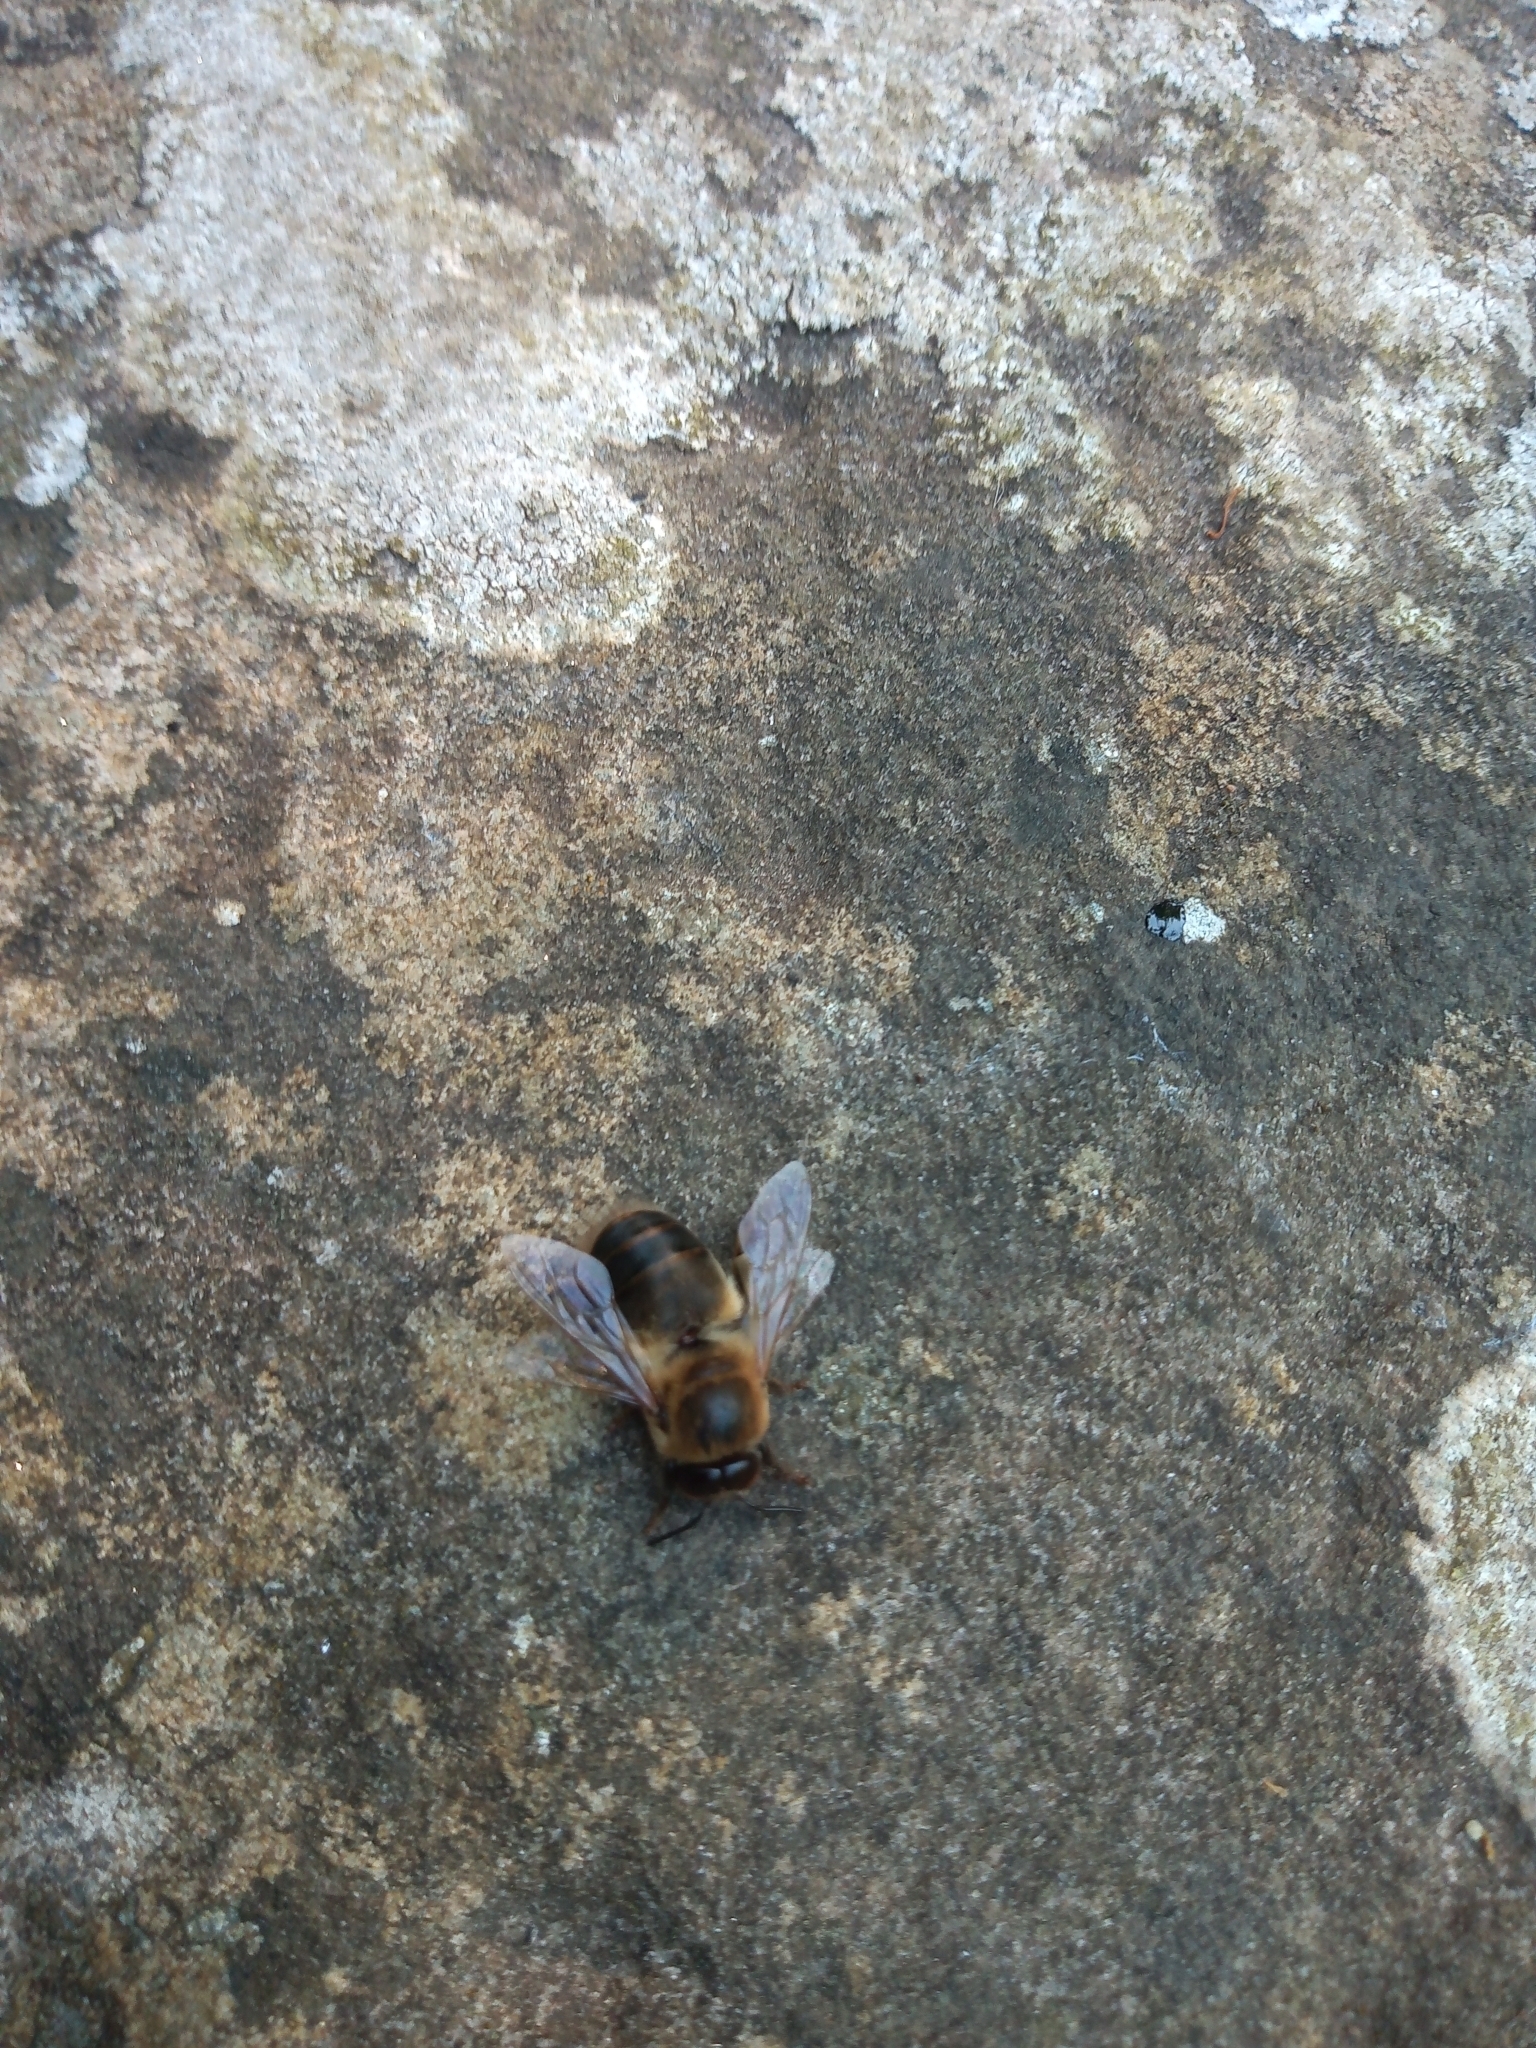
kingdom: Animalia
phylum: Arthropoda
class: Insecta
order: Hymenoptera
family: Apidae
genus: Apis
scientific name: Apis mellifera
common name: Honey bee
